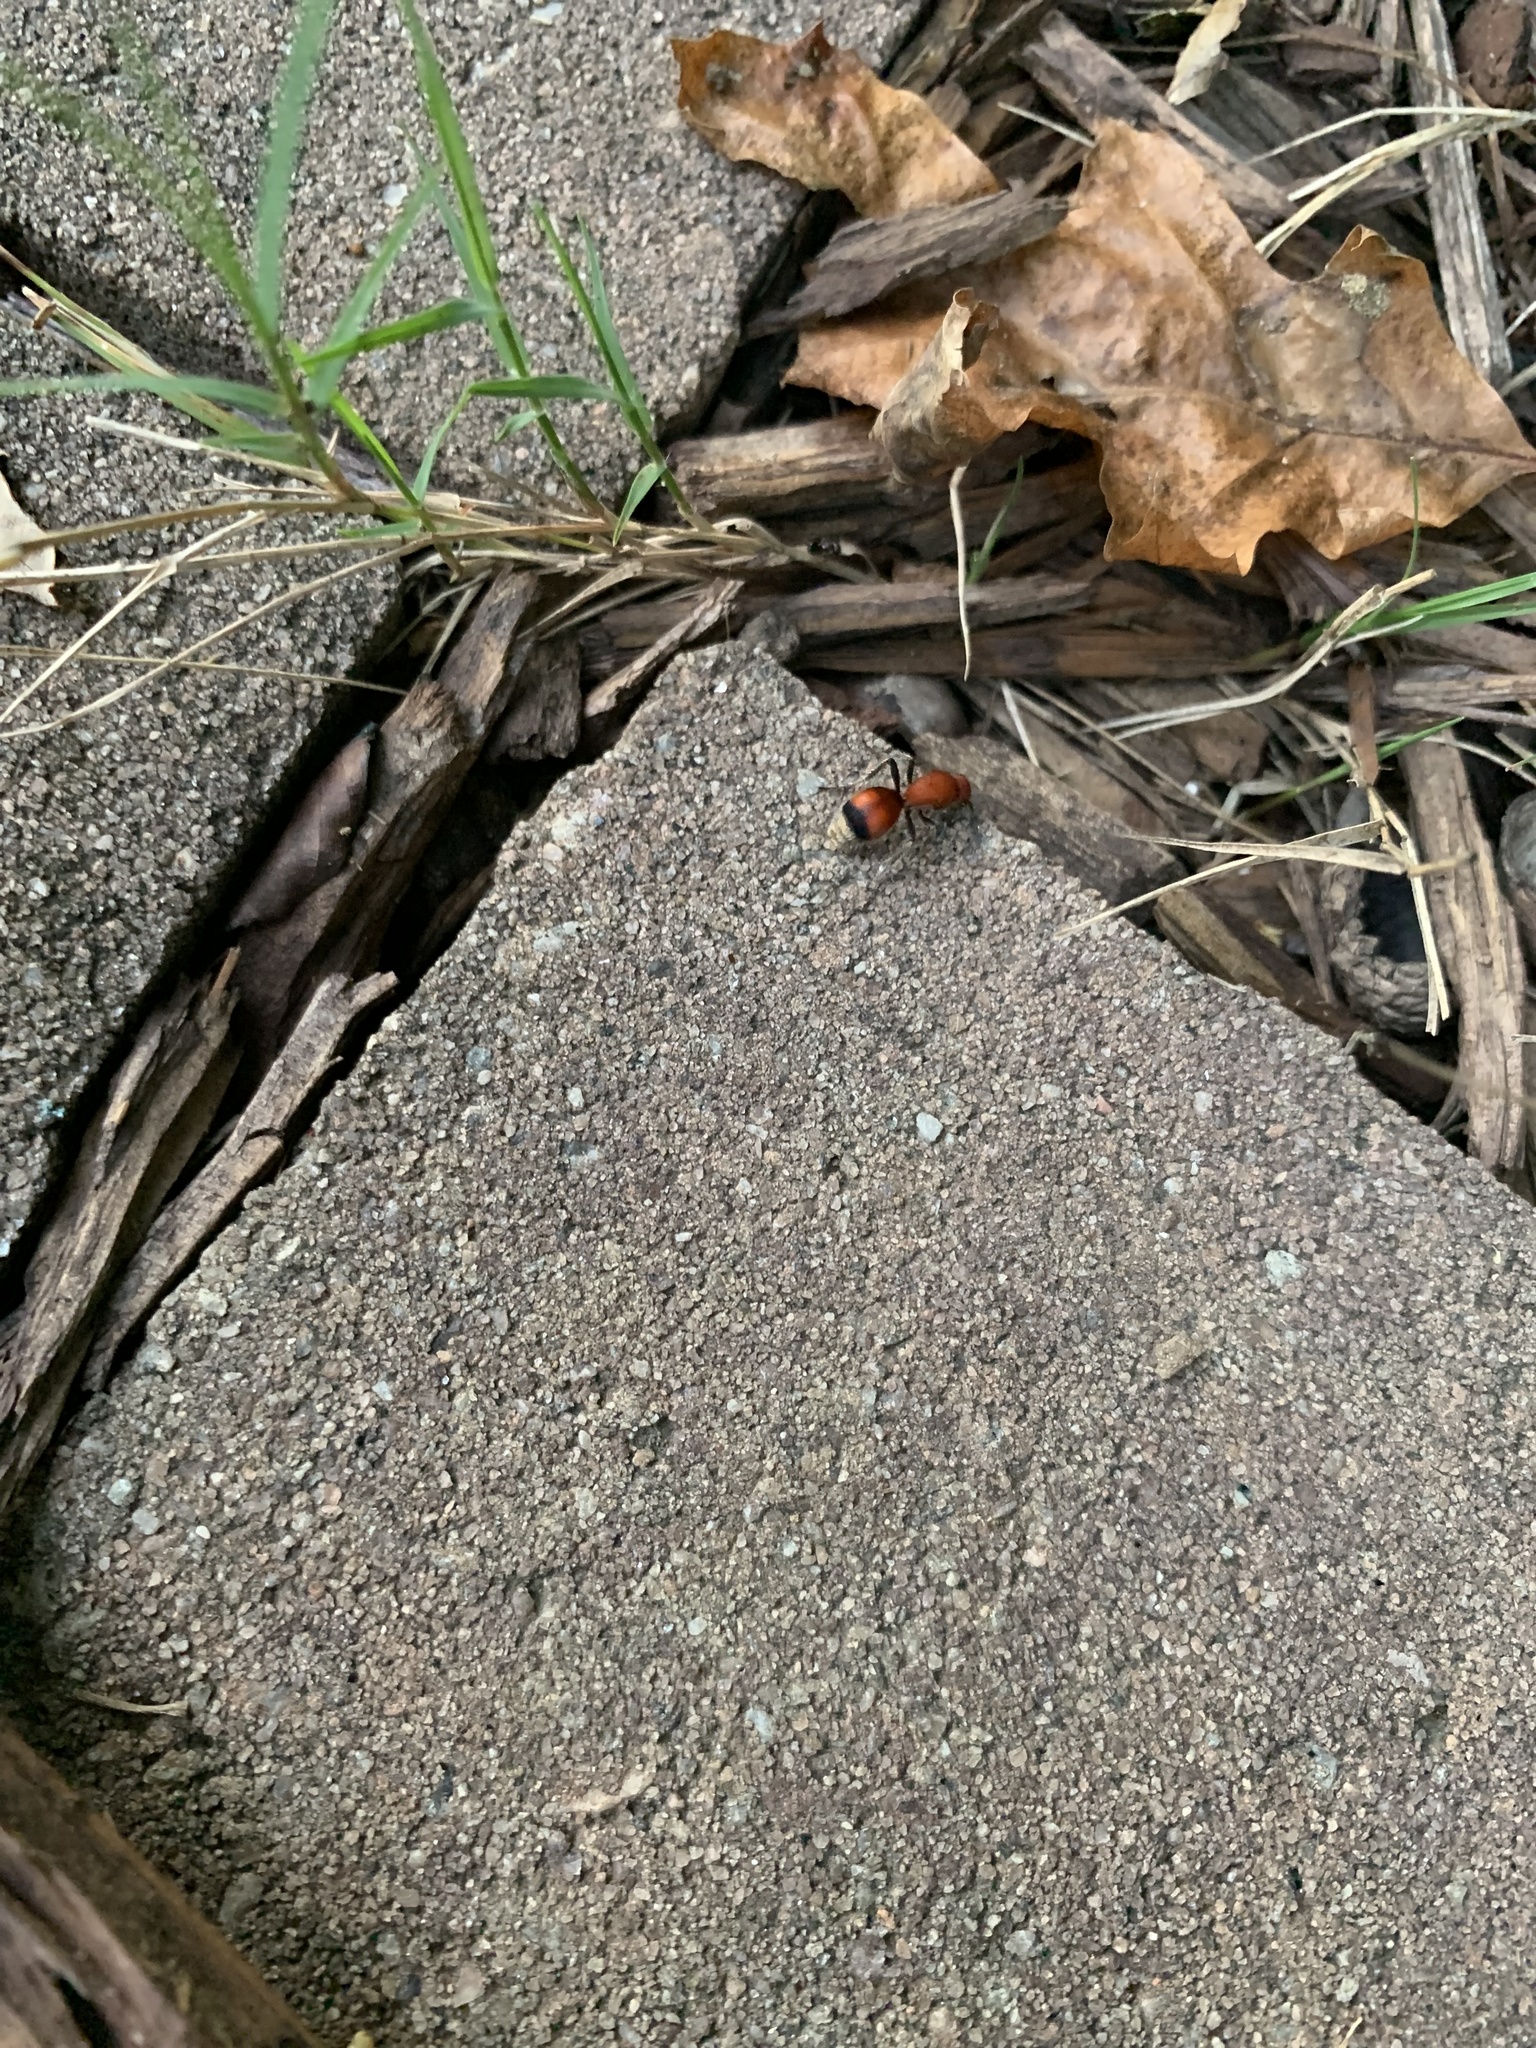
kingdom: Animalia
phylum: Arthropoda
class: Insecta
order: Hymenoptera
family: Mutillidae
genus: Dasymutilla
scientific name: Dasymutilla
